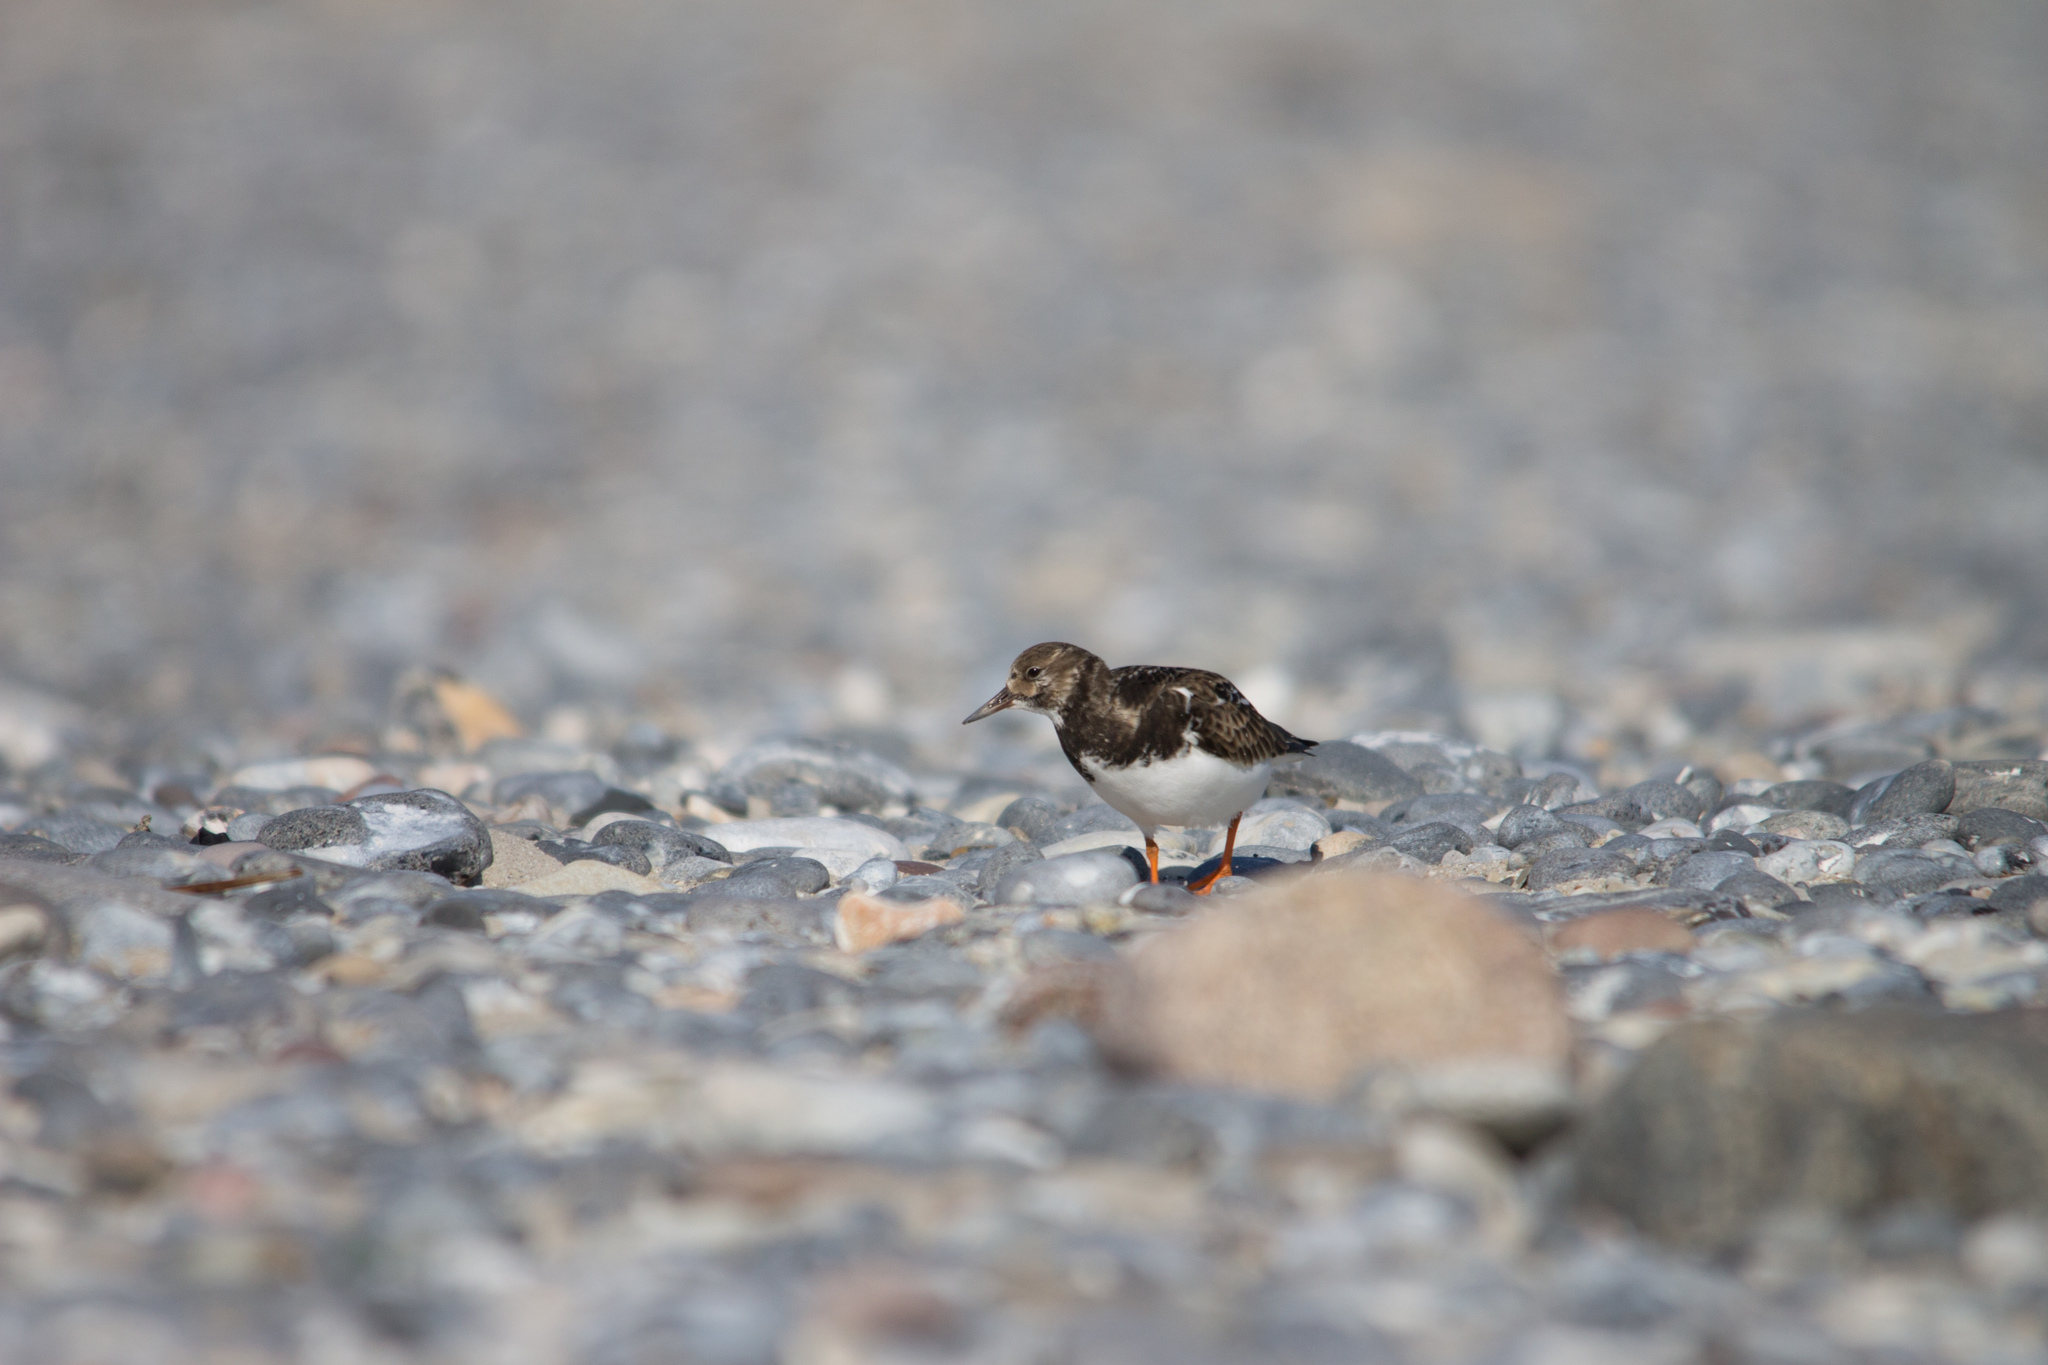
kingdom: Animalia
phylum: Chordata
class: Aves
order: Charadriiformes
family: Scolopacidae
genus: Arenaria
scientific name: Arenaria interpres
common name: Ruddy turnstone
